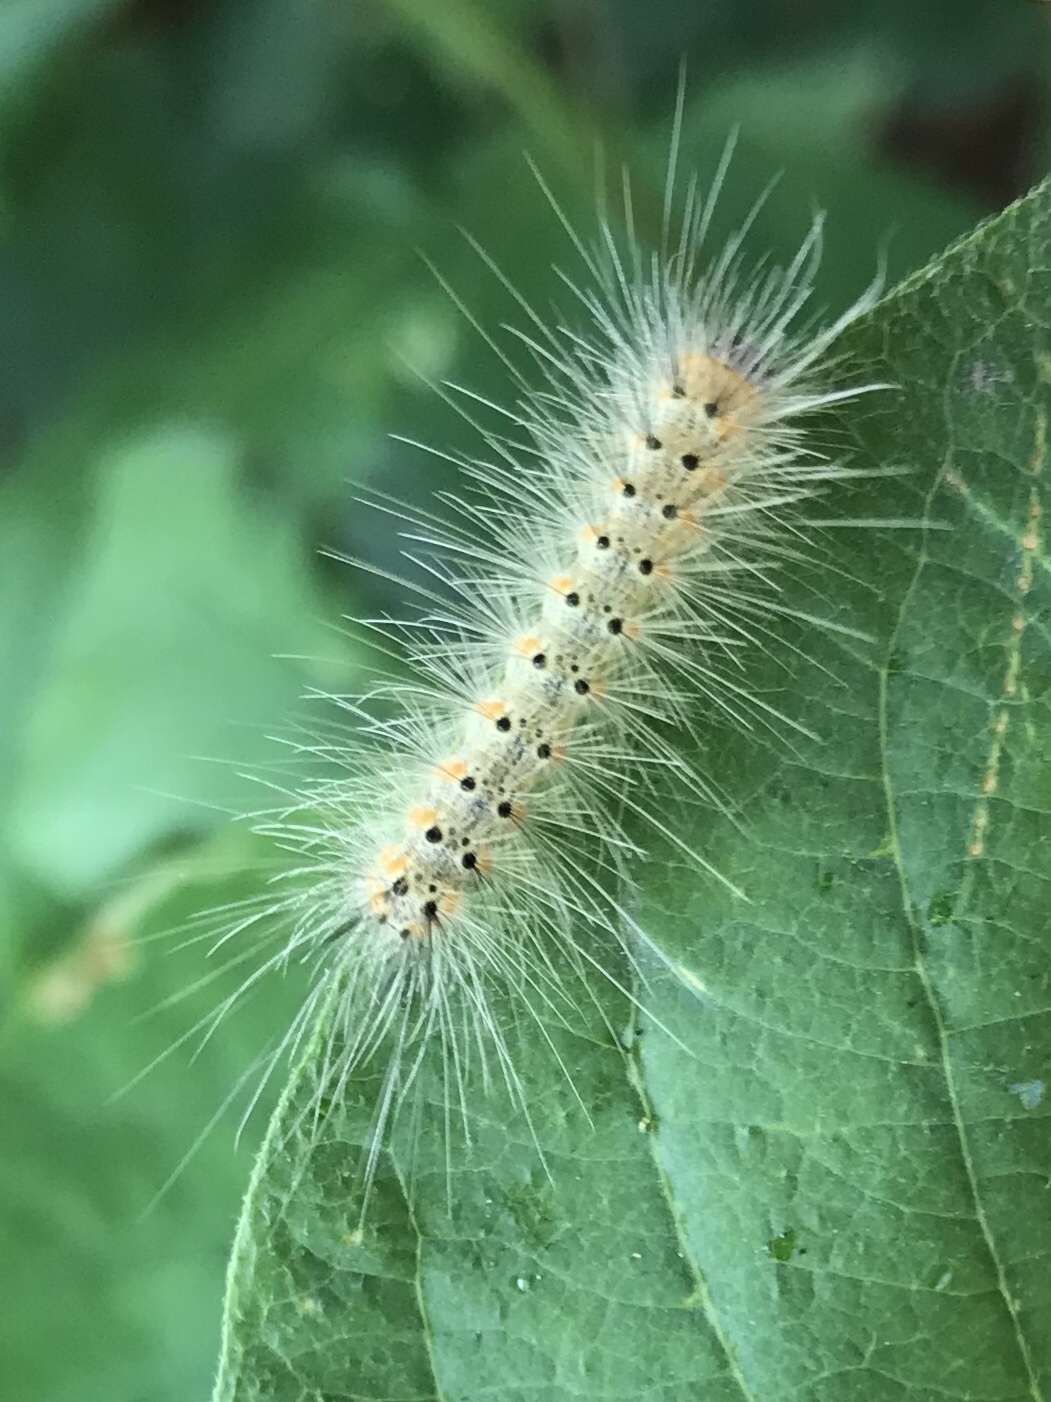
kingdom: Animalia
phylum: Arthropoda
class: Insecta
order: Lepidoptera
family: Erebidae
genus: Hyphantria
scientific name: Hyphantria cunea
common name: American white moth
